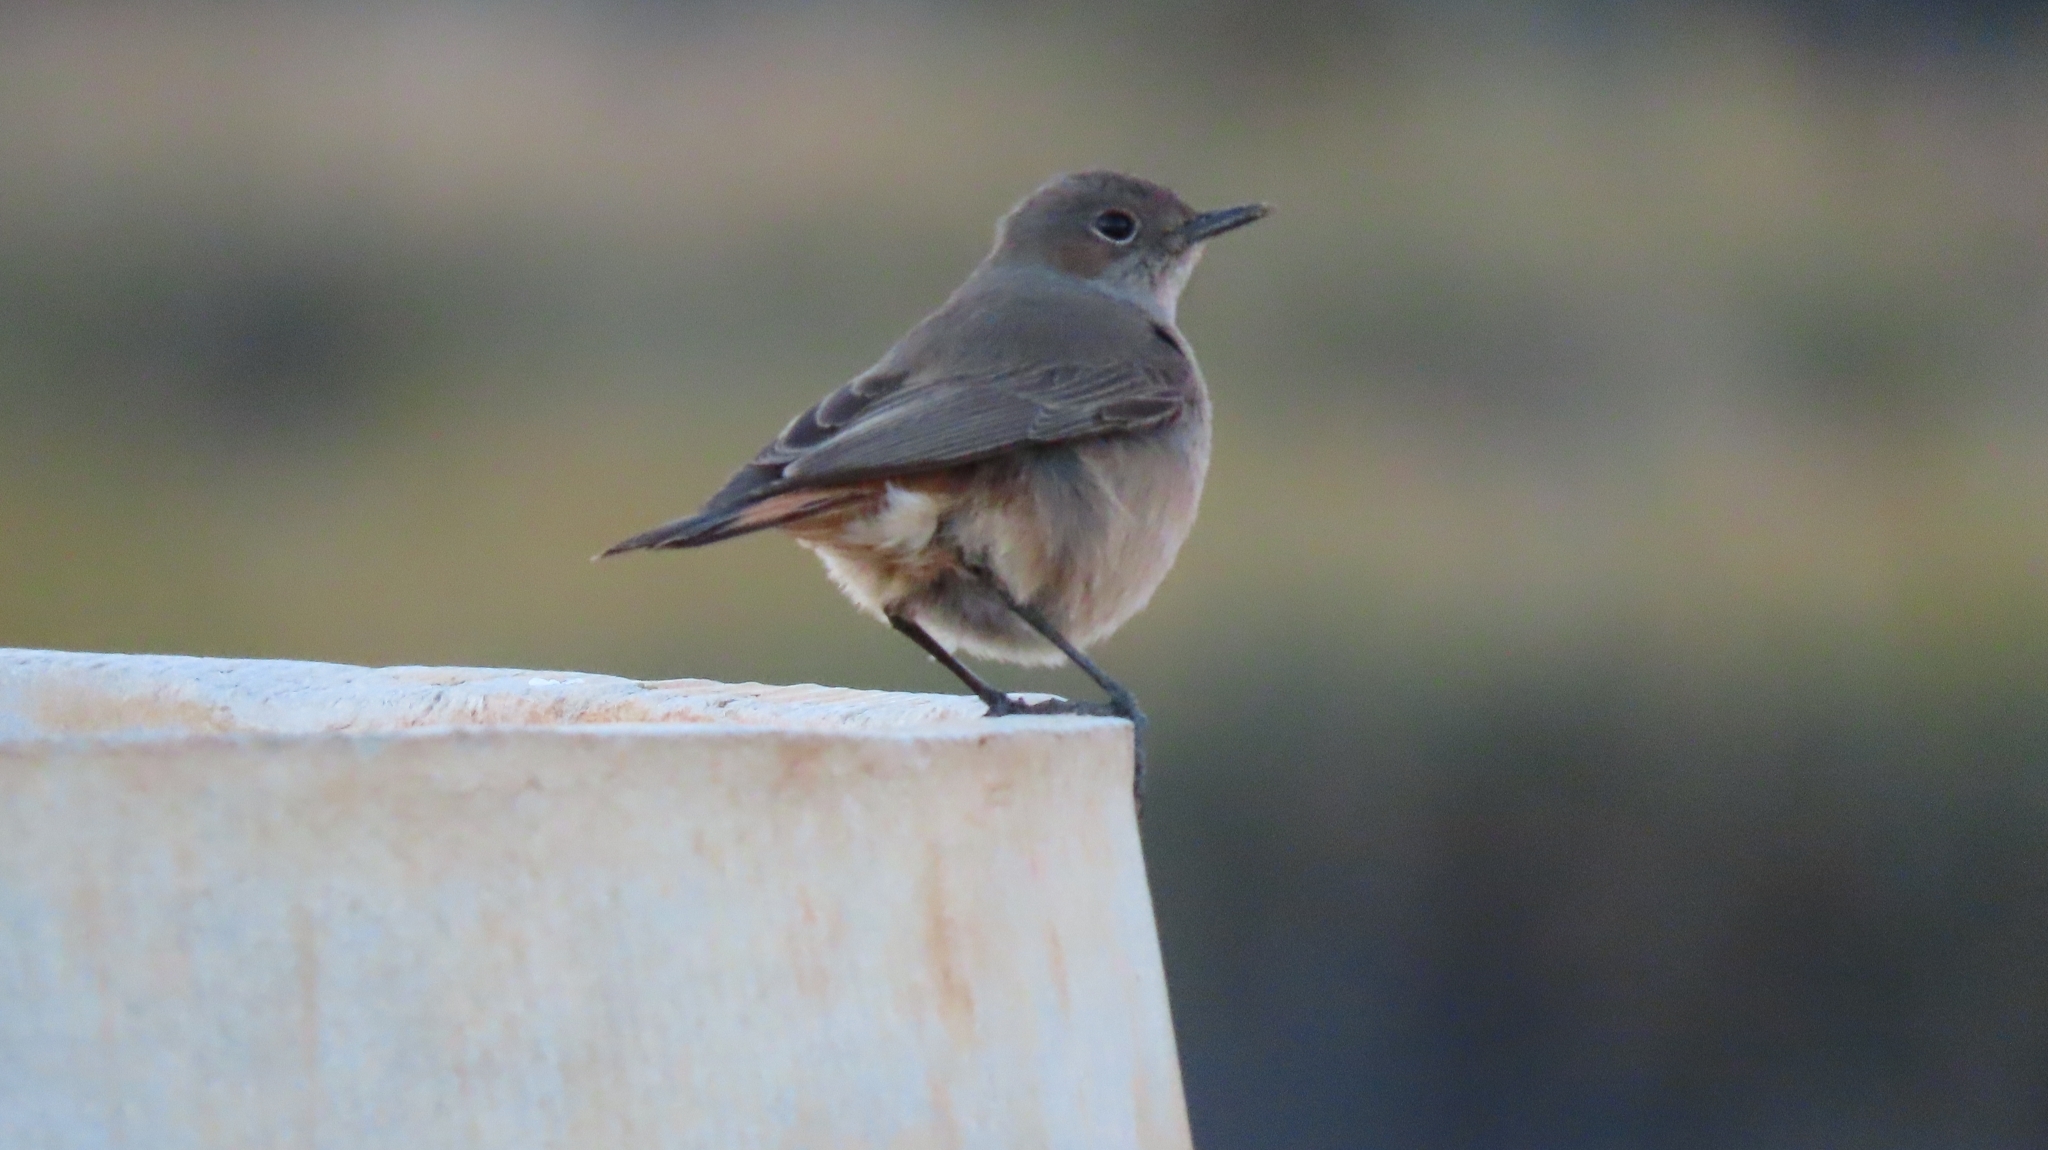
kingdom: Animalia
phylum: Chordata
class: Aves
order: Passeriformes
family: Muscicapidae
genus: Oenanthe
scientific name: Oenanthe familiaris
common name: Familiar chat
